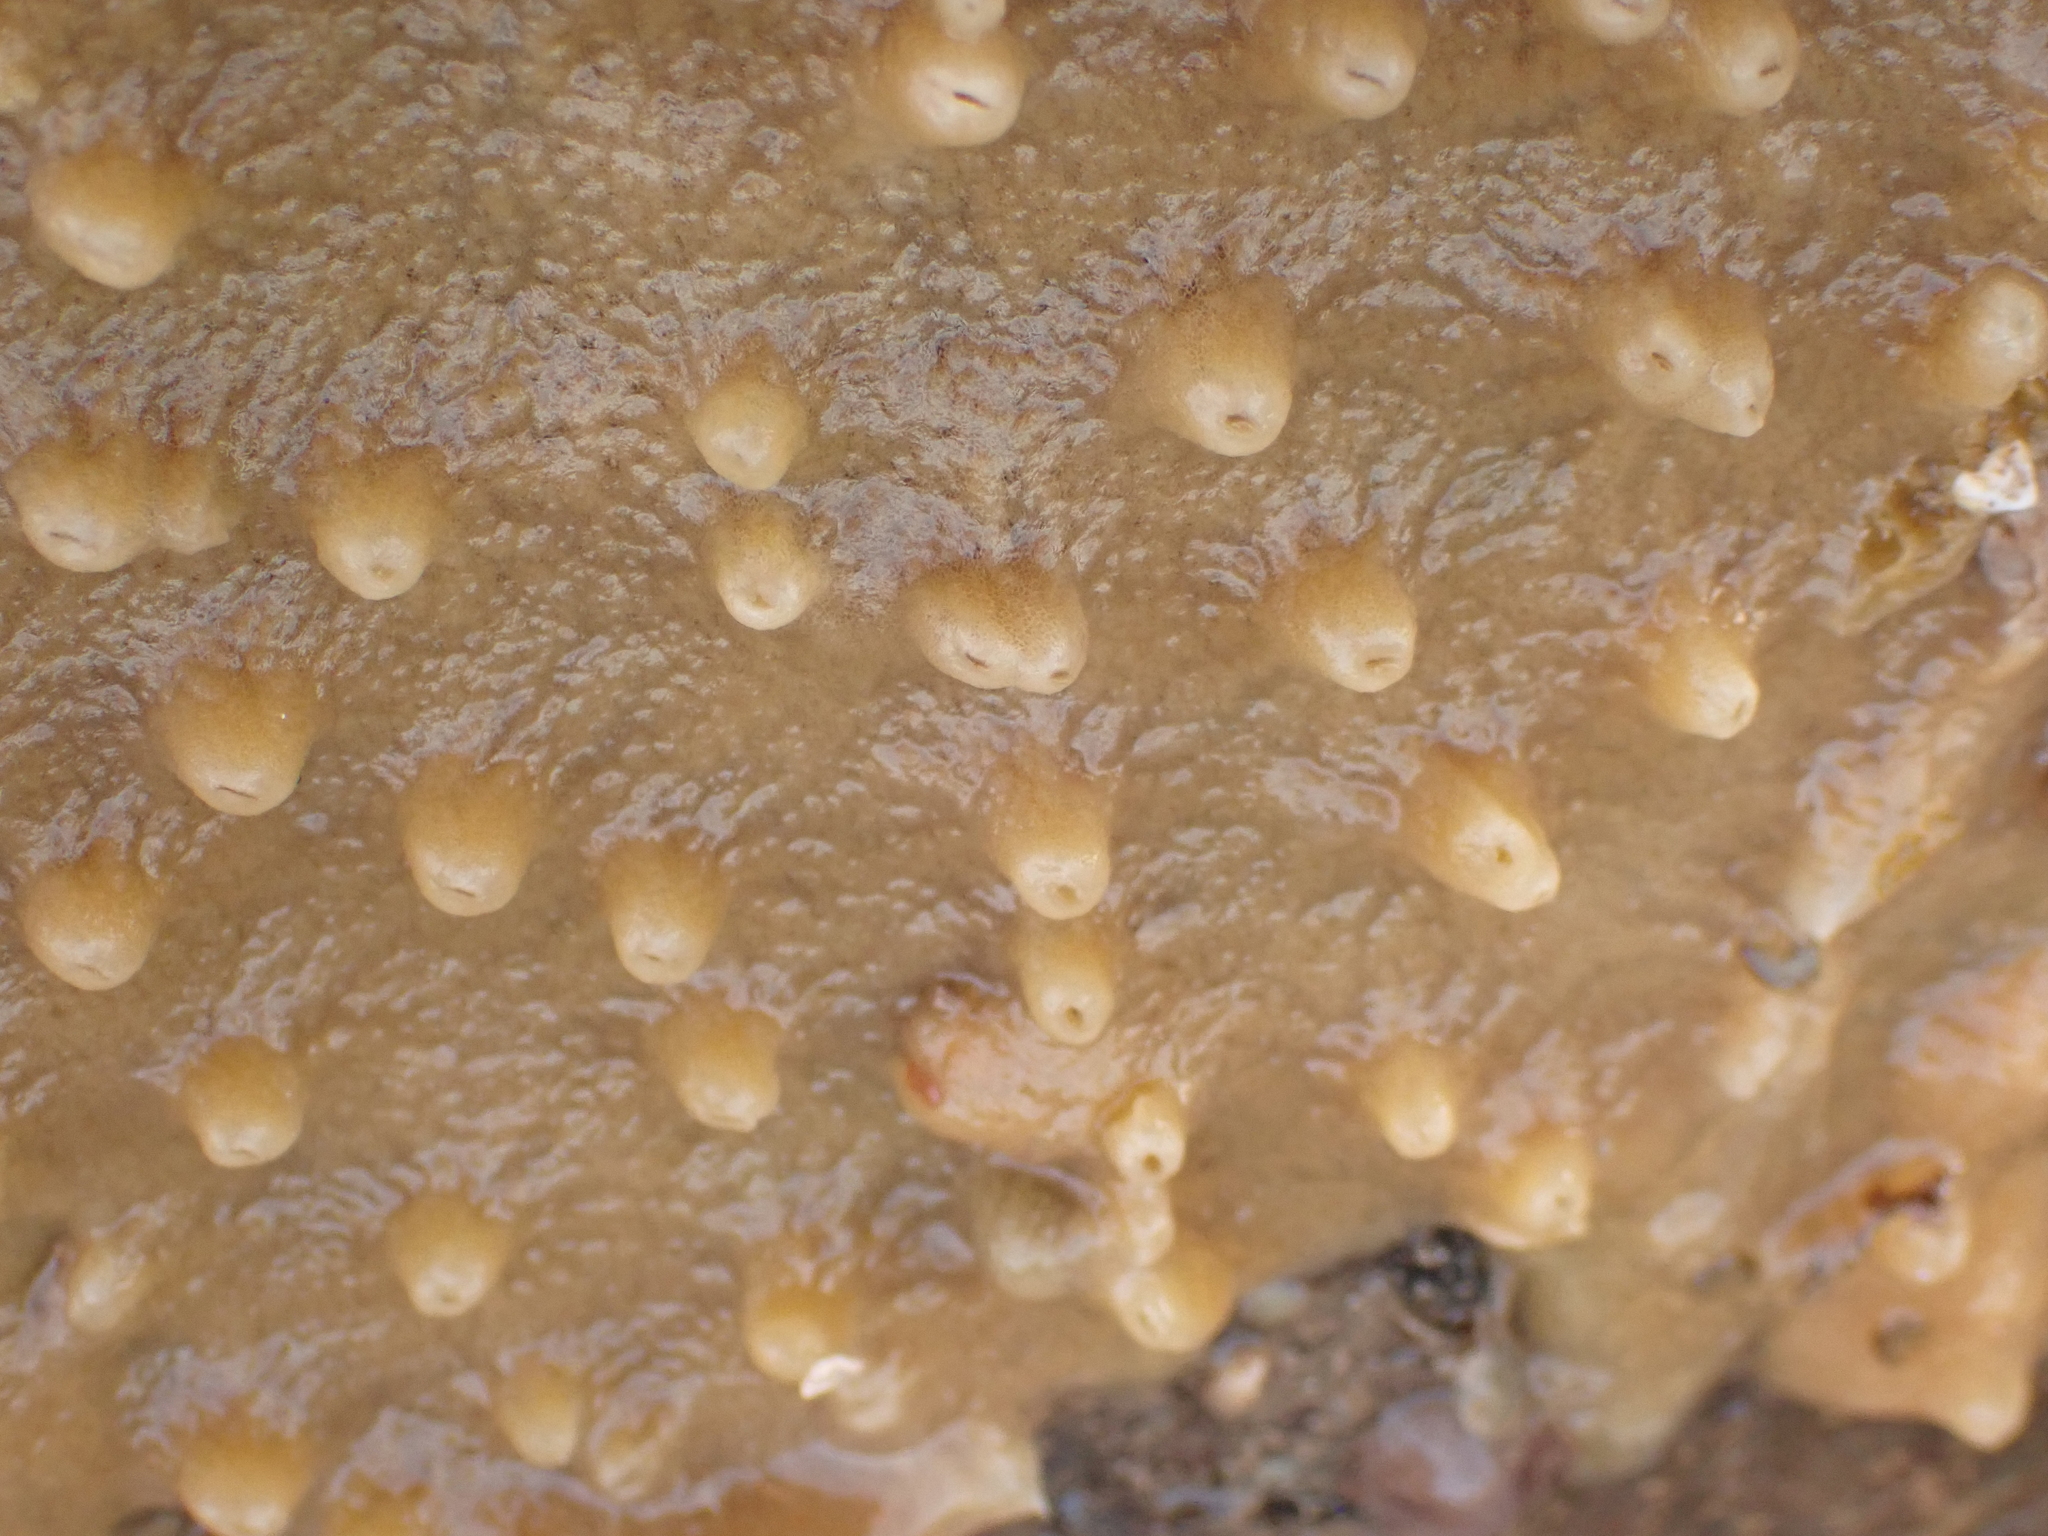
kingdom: Animalia
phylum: Porifera
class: Demospongiae
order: Suberitida
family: Halichondriidae
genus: Halichondria
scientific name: Halichondria panicea
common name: Breadcrumb sponge
